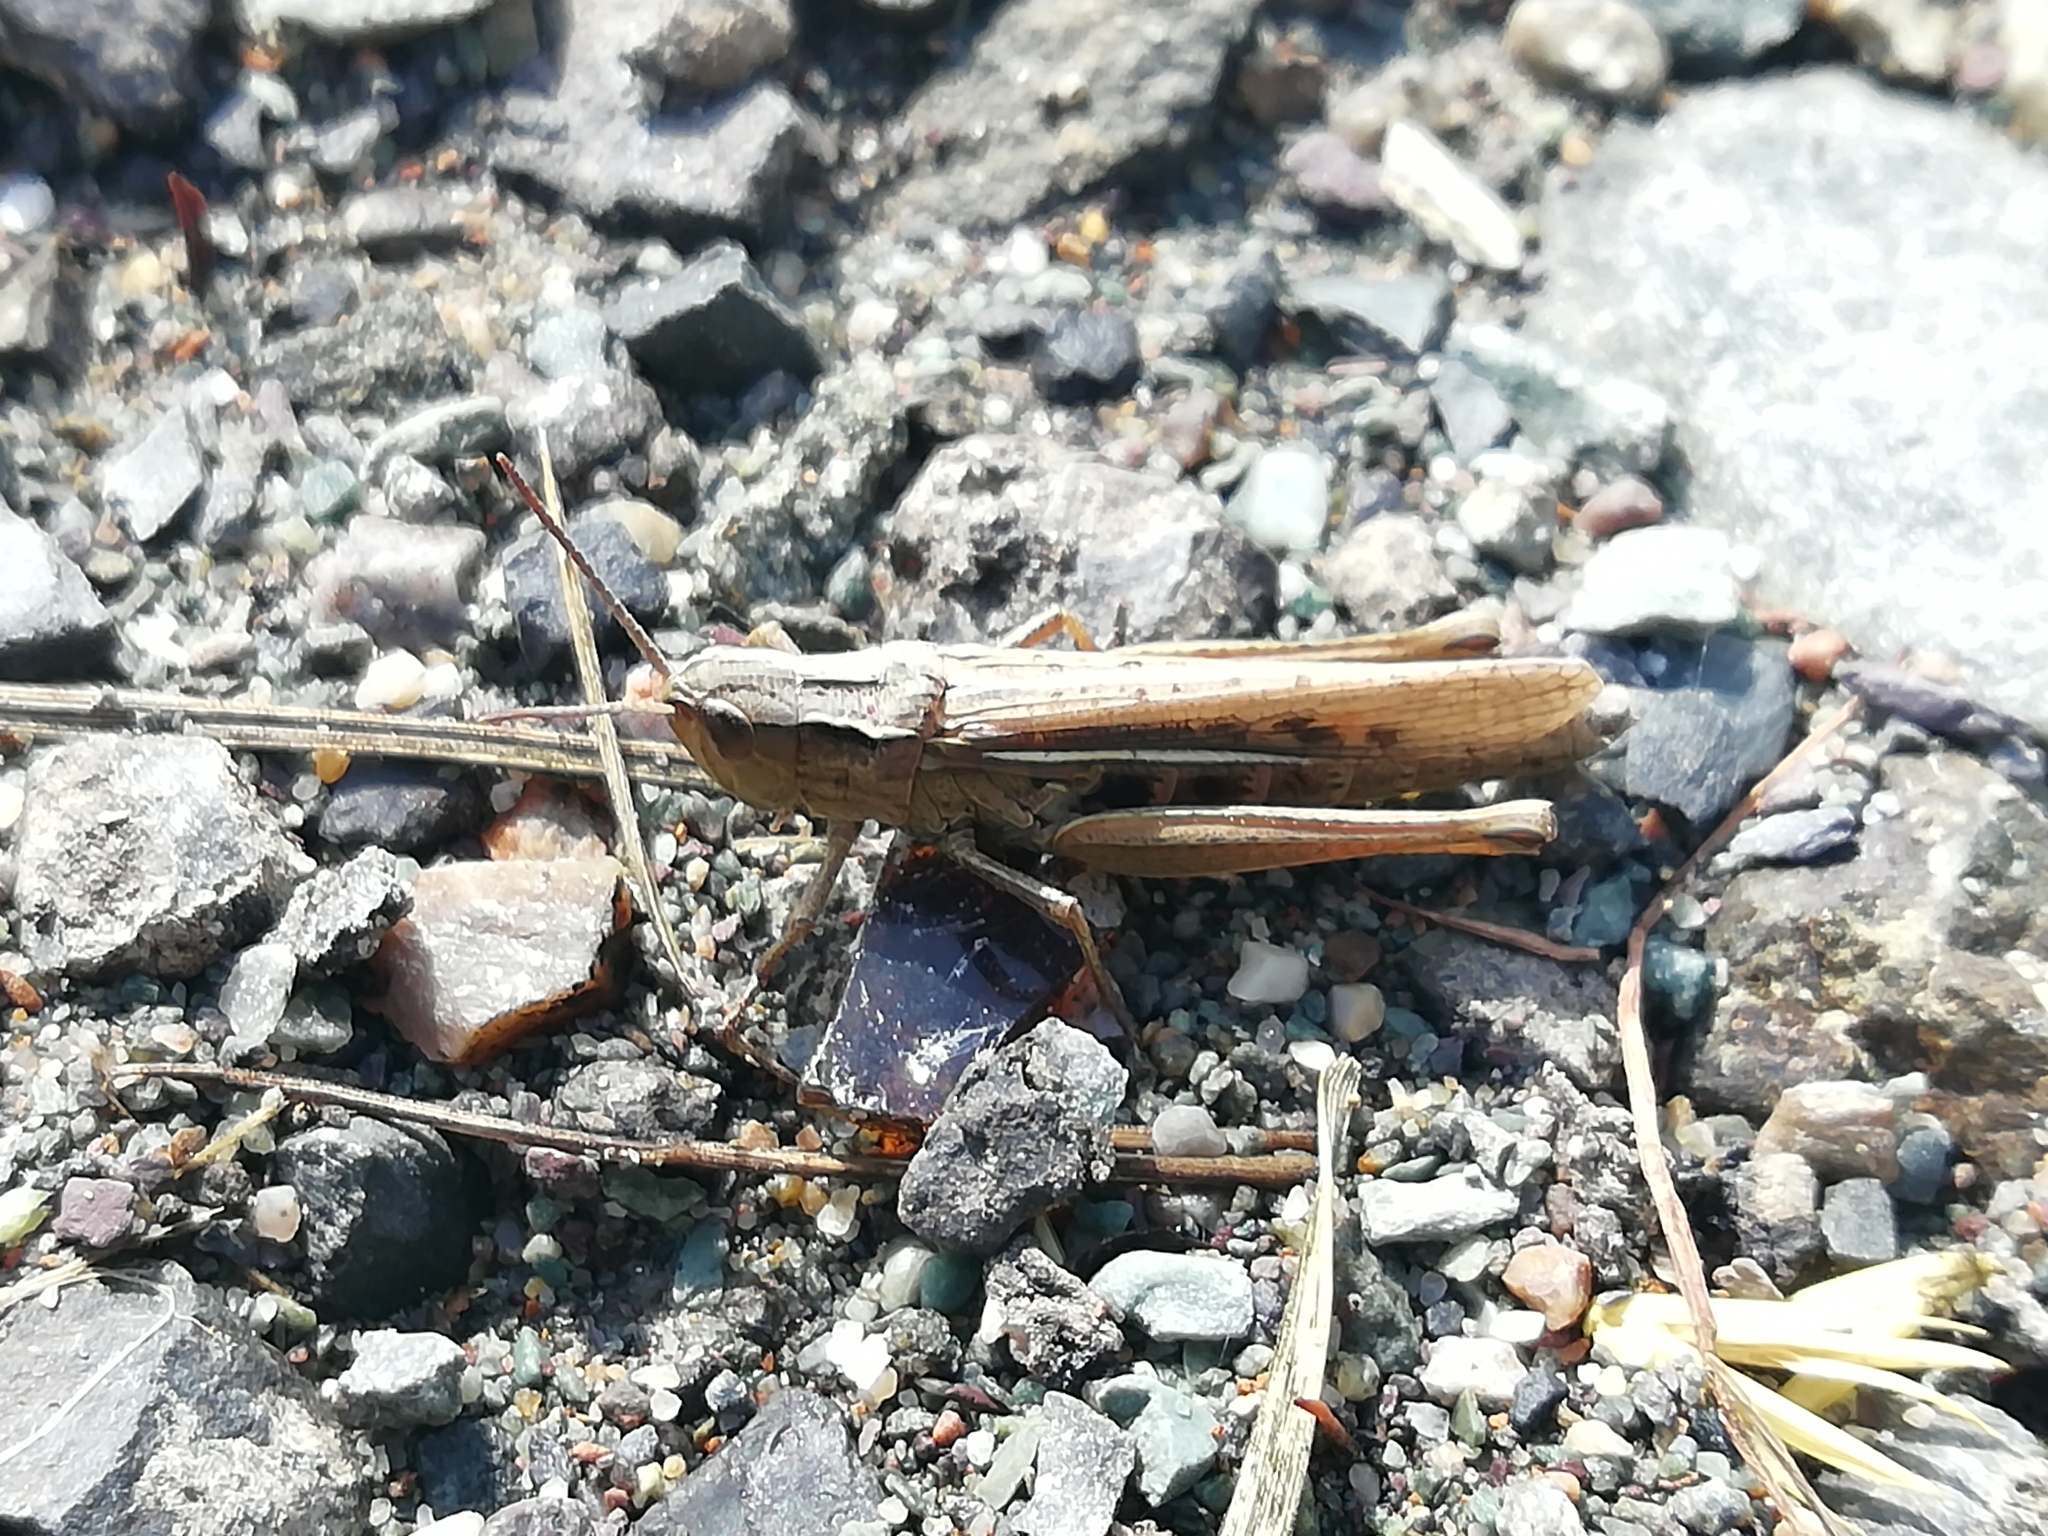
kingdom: Animalia
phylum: Arthropoda
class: Insecta
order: Orthoptera
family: Acrididae
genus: Chorthippus
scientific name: Chorthippus karelini
